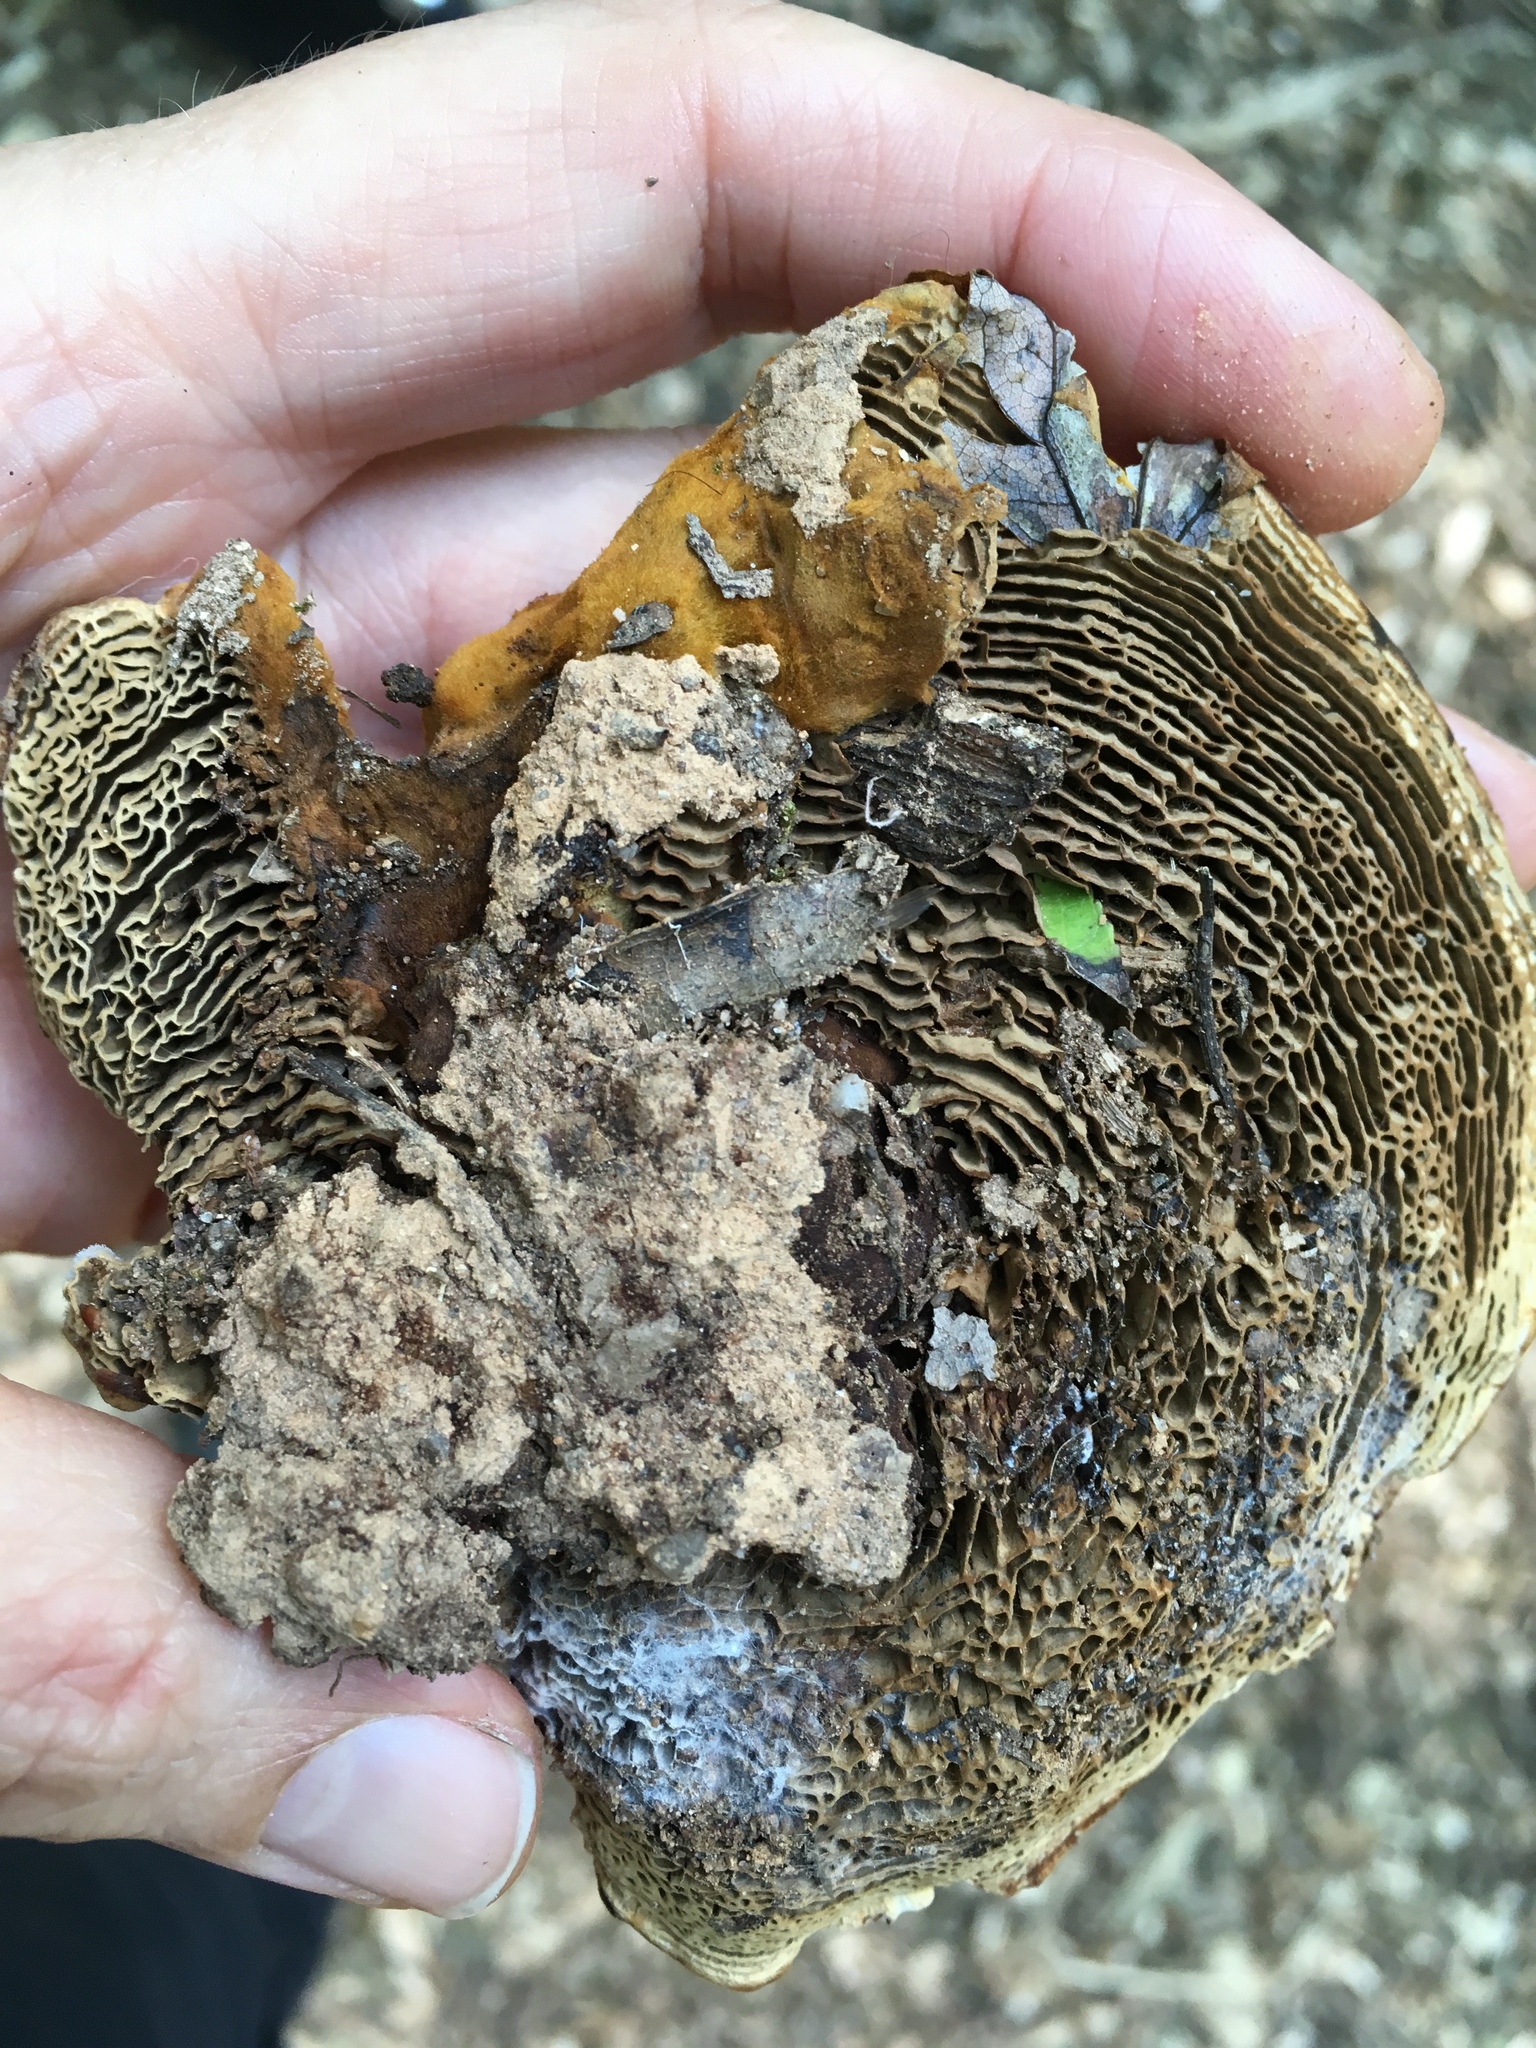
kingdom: Fungi
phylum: Basidiomycota
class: Agaricomycetes
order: Hymenochaetales
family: Hymenochaetaceae
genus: Coltricia
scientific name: Coltricia montagnei
